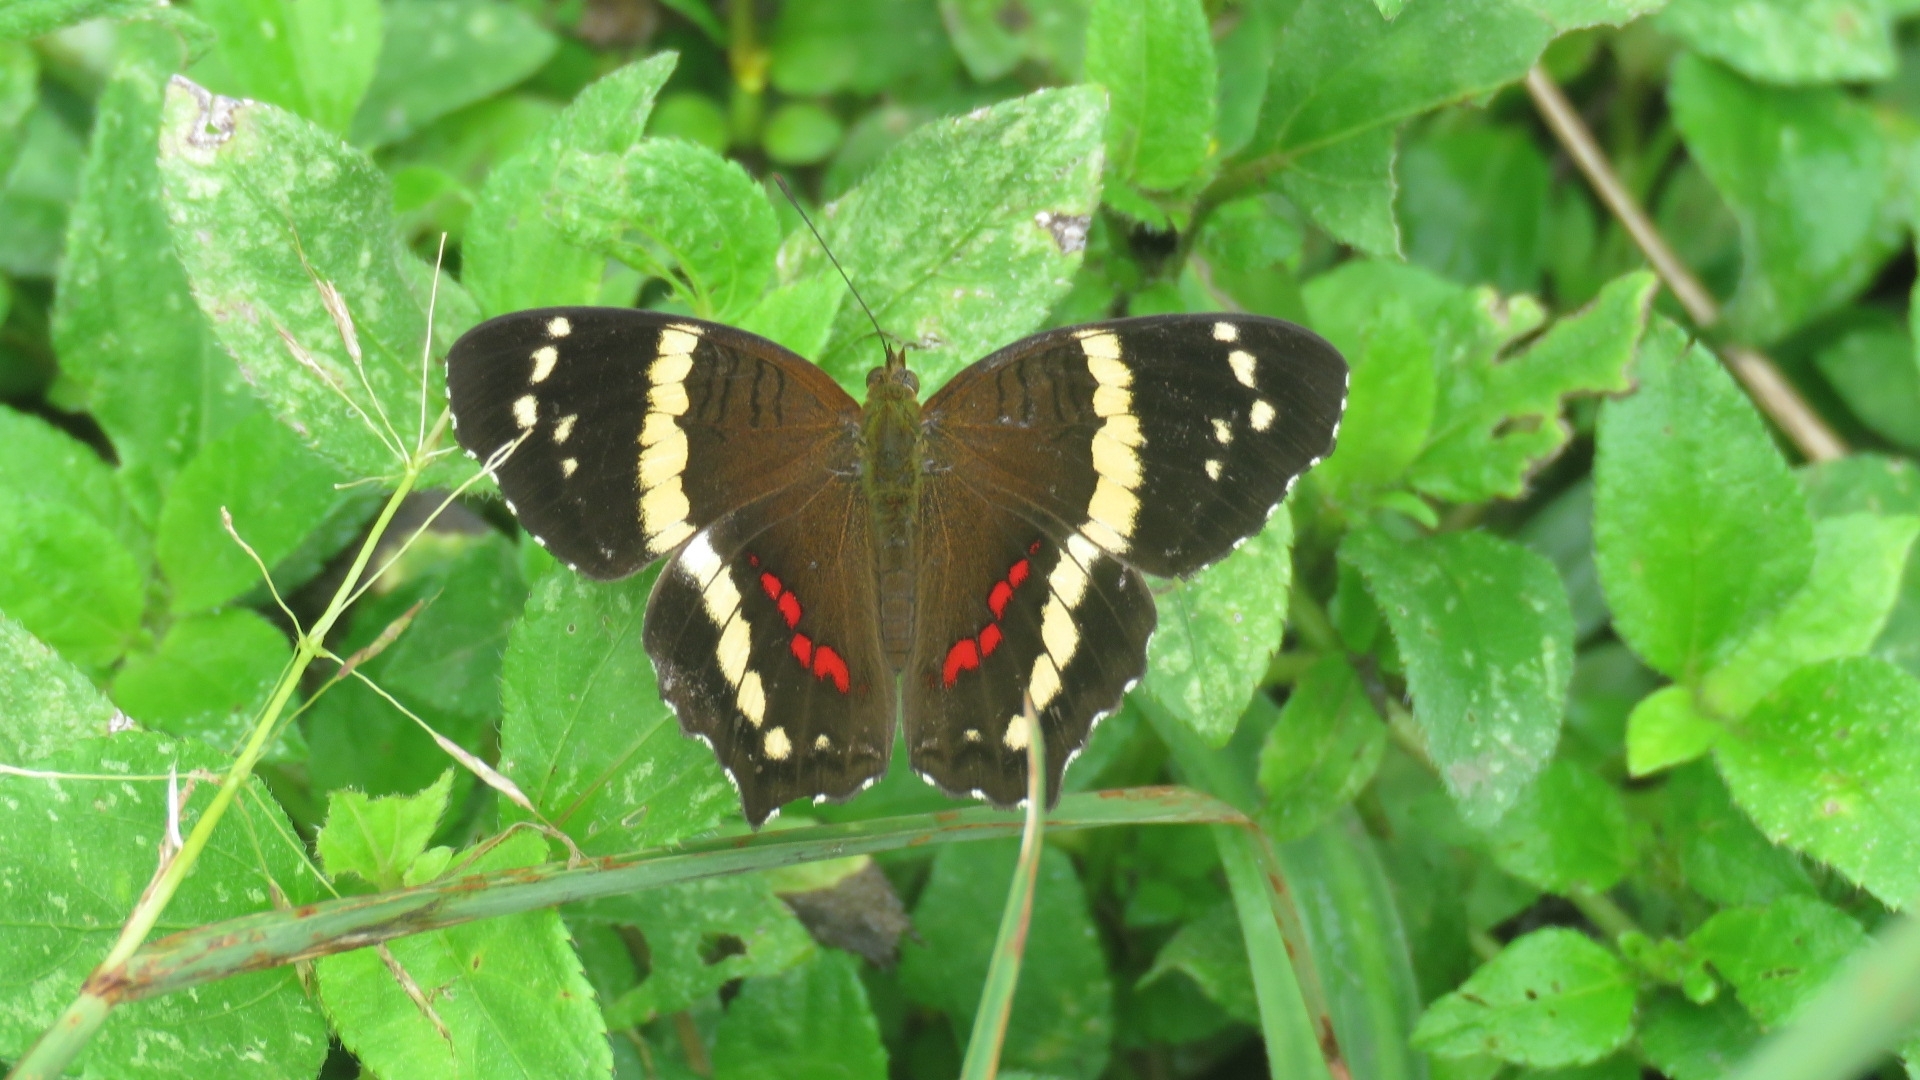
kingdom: Animalia
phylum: Arthropoda
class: Insecta
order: Lepidoptera
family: Nymphalidae
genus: Anartia
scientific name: Anartia fatima
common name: Banded peacock
